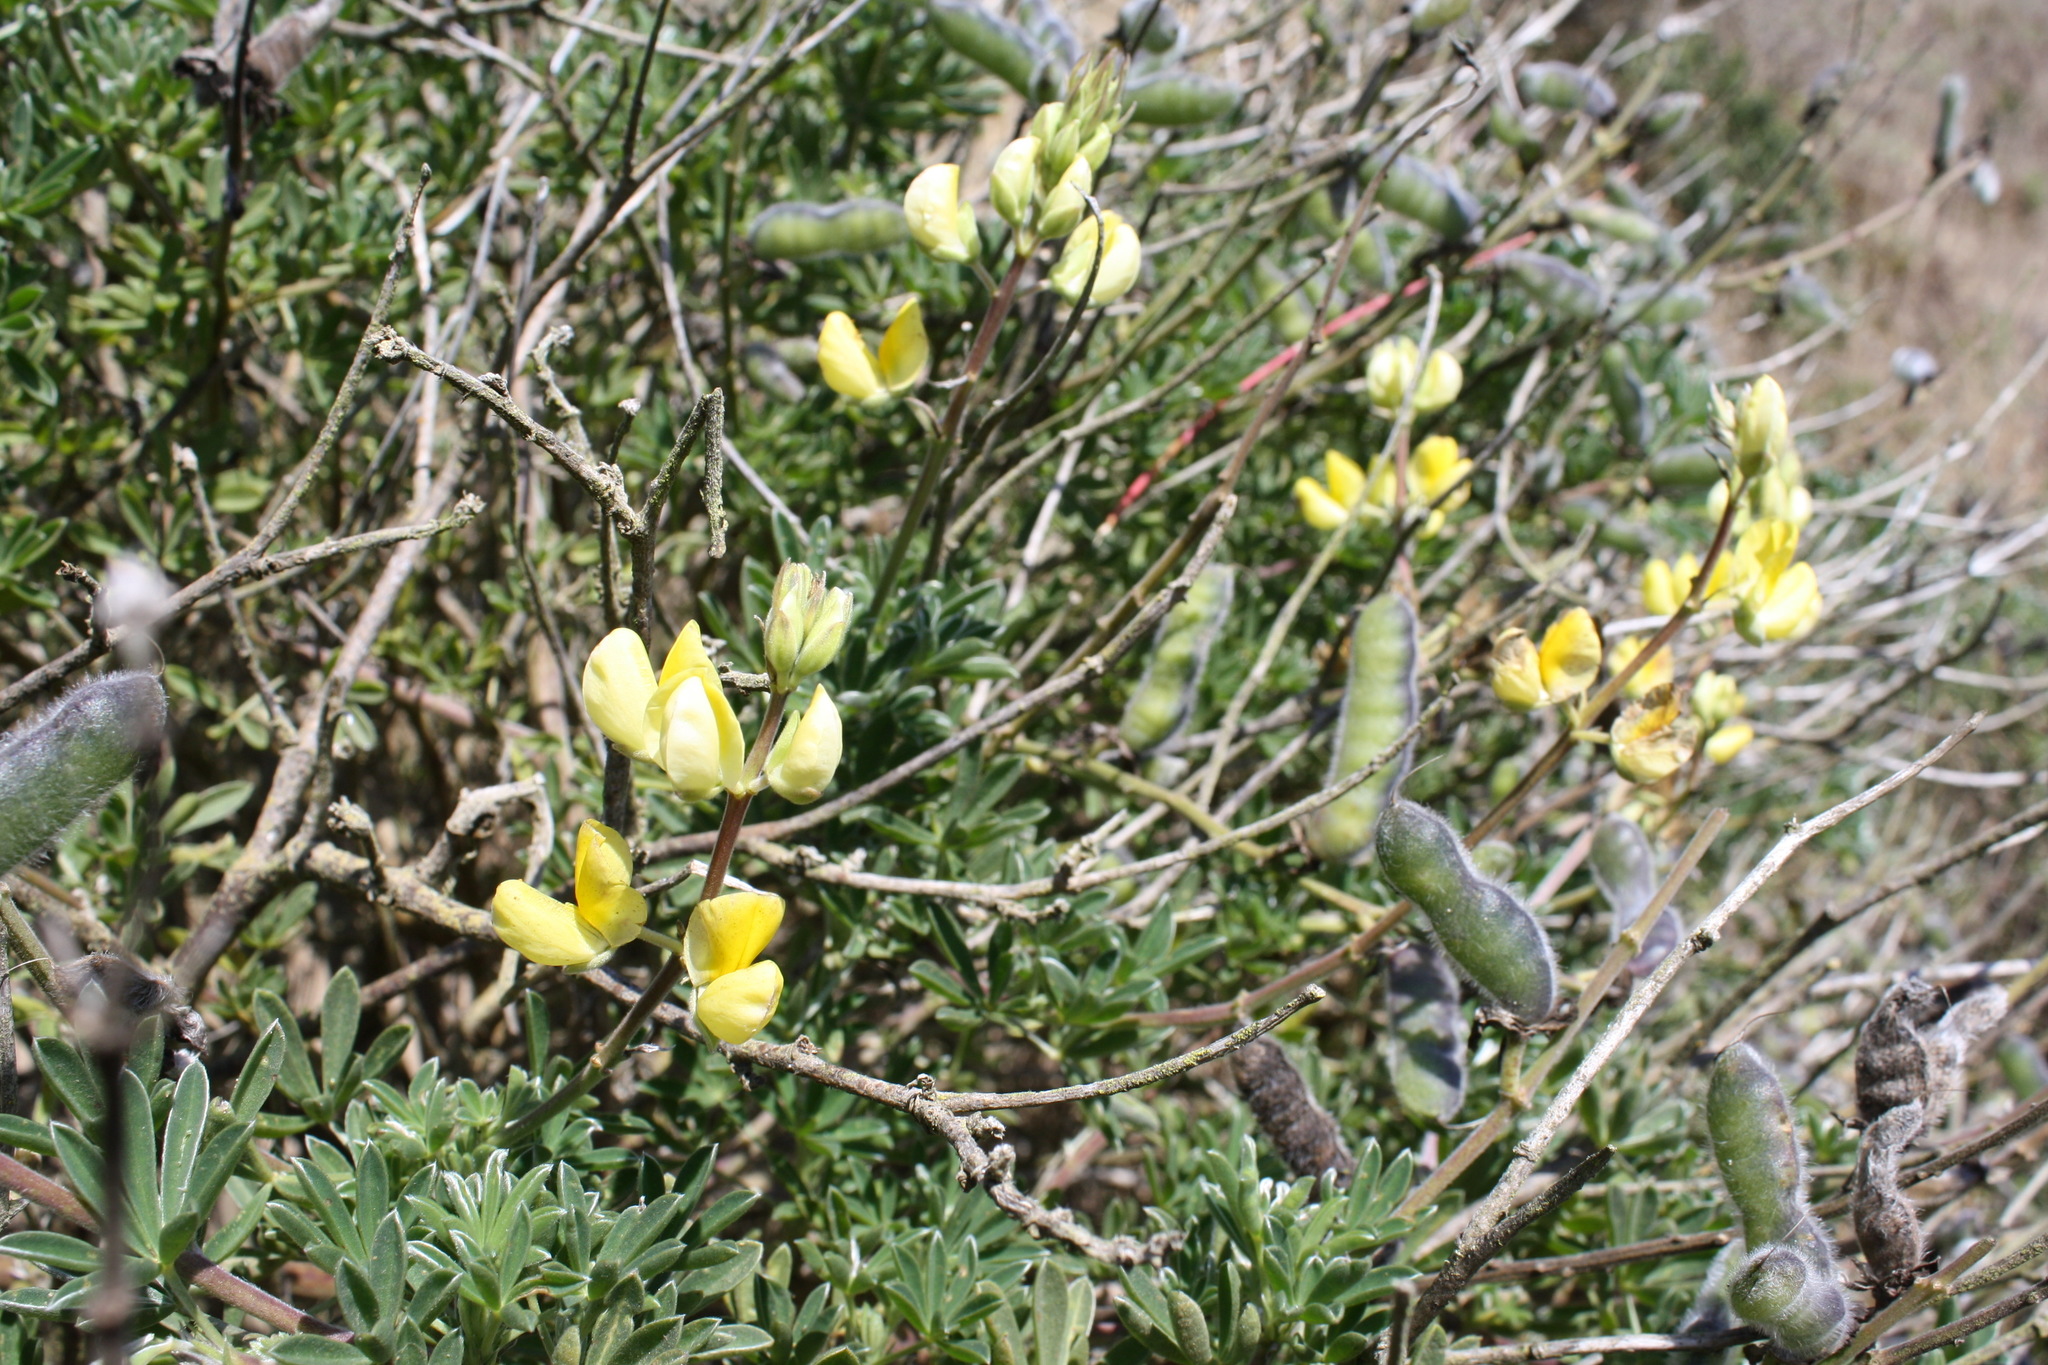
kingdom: Plantae
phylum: Tracheophyta
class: Magnoliopsida
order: Fabales
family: Fabaceae
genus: Lupinus
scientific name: Lupinus arboreus
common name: Yellow bush lupine
